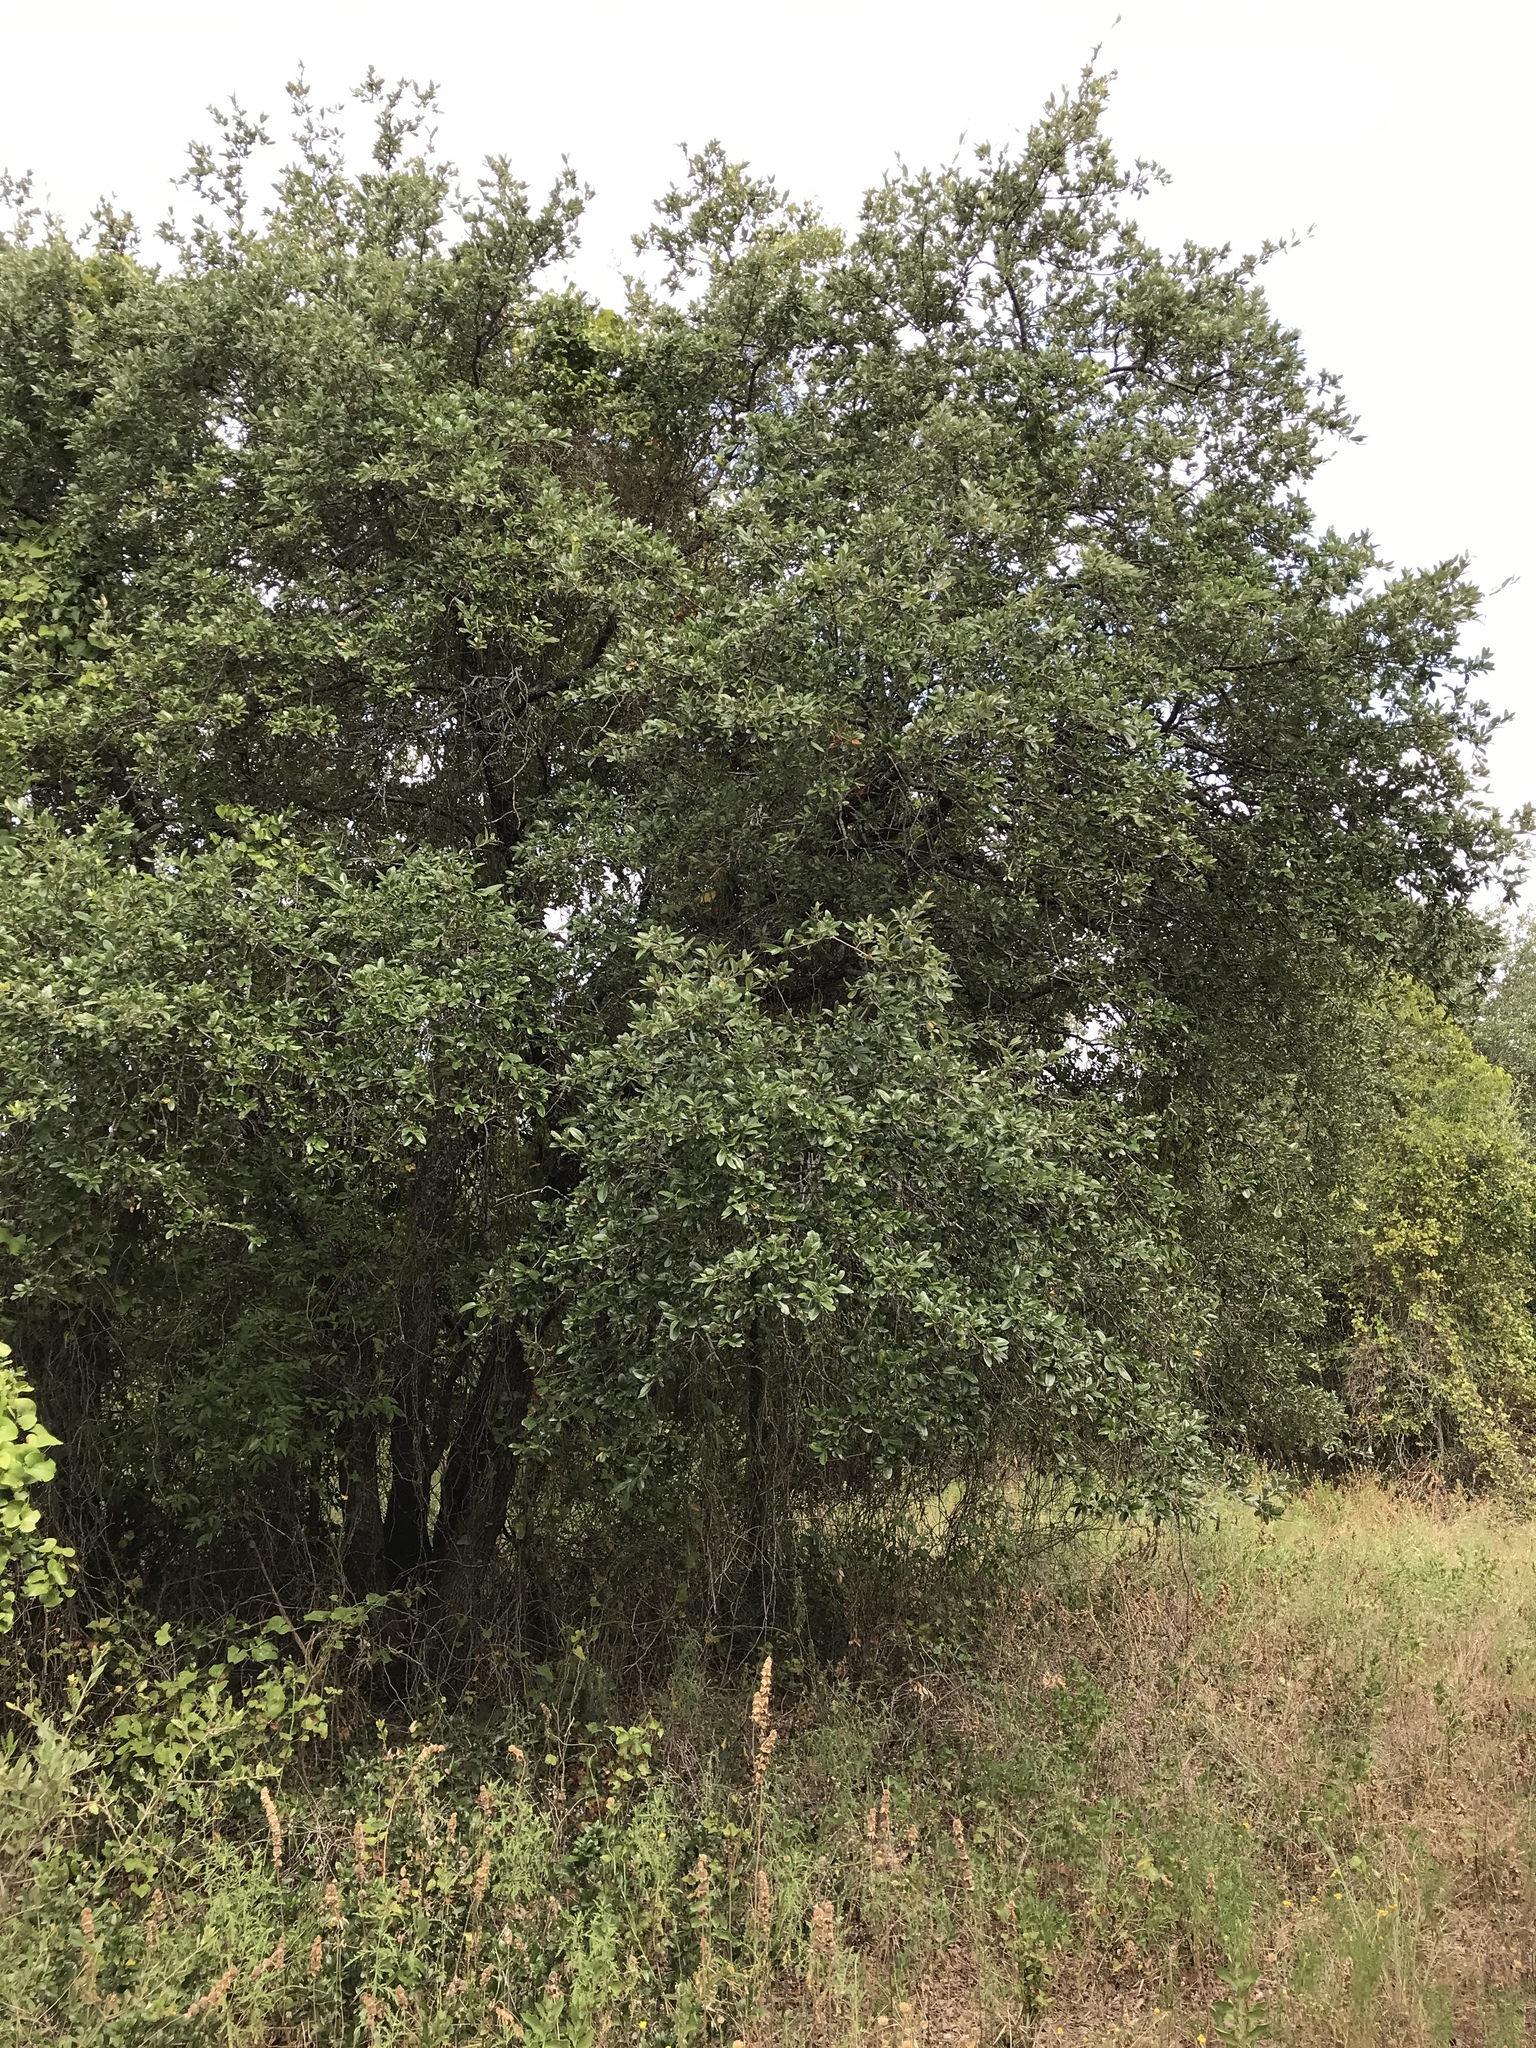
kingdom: Plantae
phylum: Tracheophyta
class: Magnoliopsida
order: Fagales
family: Fagaceae
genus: Quercus
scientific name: Quercus fusiformis
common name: Texas live oak
